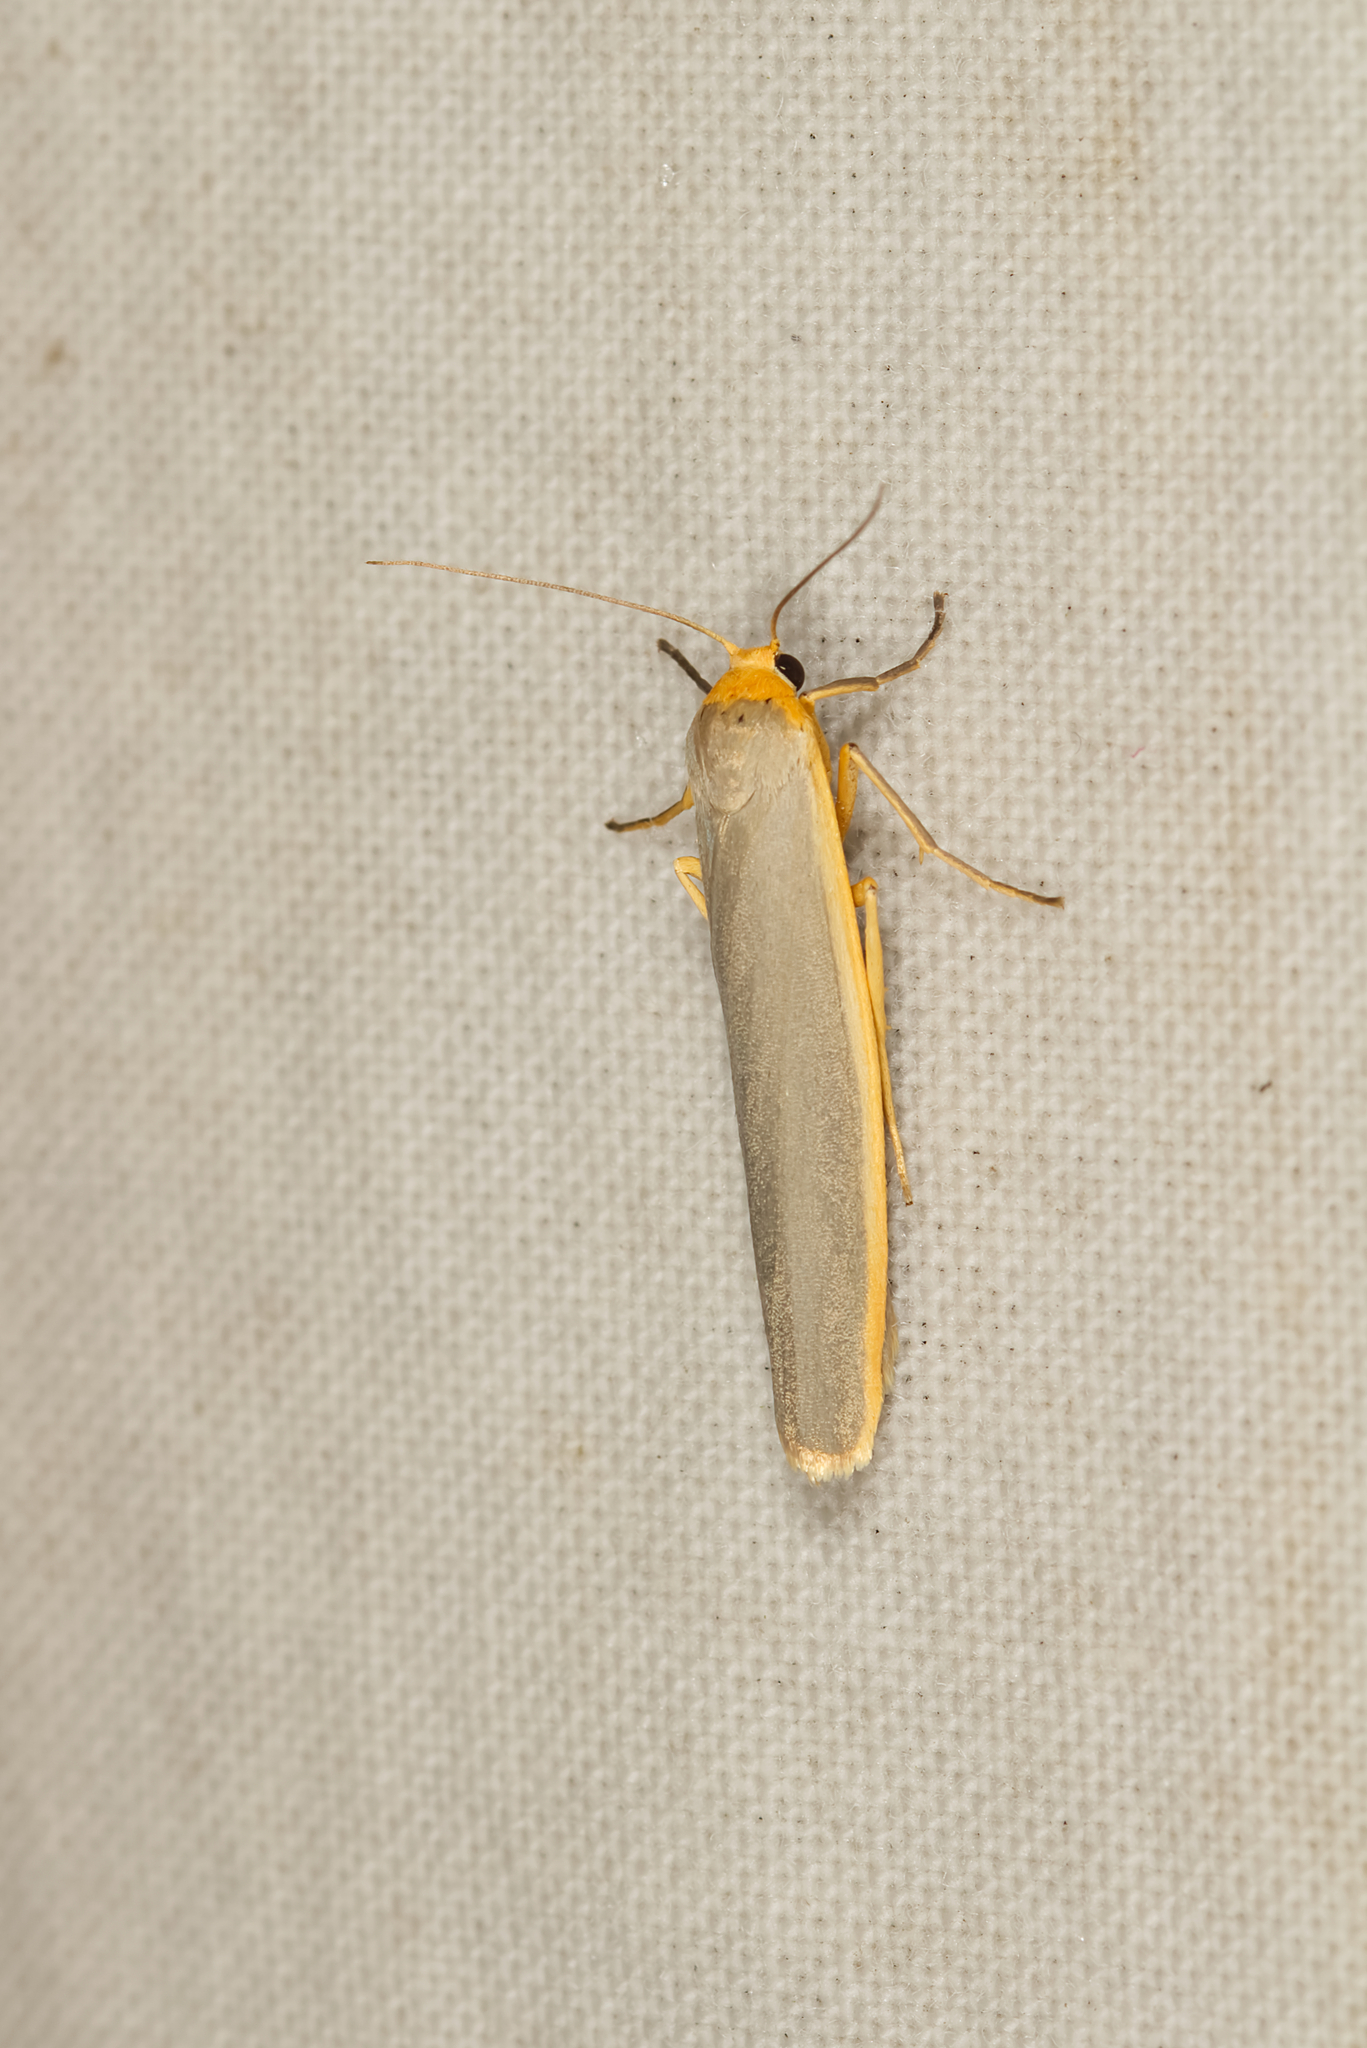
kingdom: Animalia
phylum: Arthropoda
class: Insecta
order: Lepidoptera
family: Erebidae
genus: Manulea
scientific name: Manulea complana
